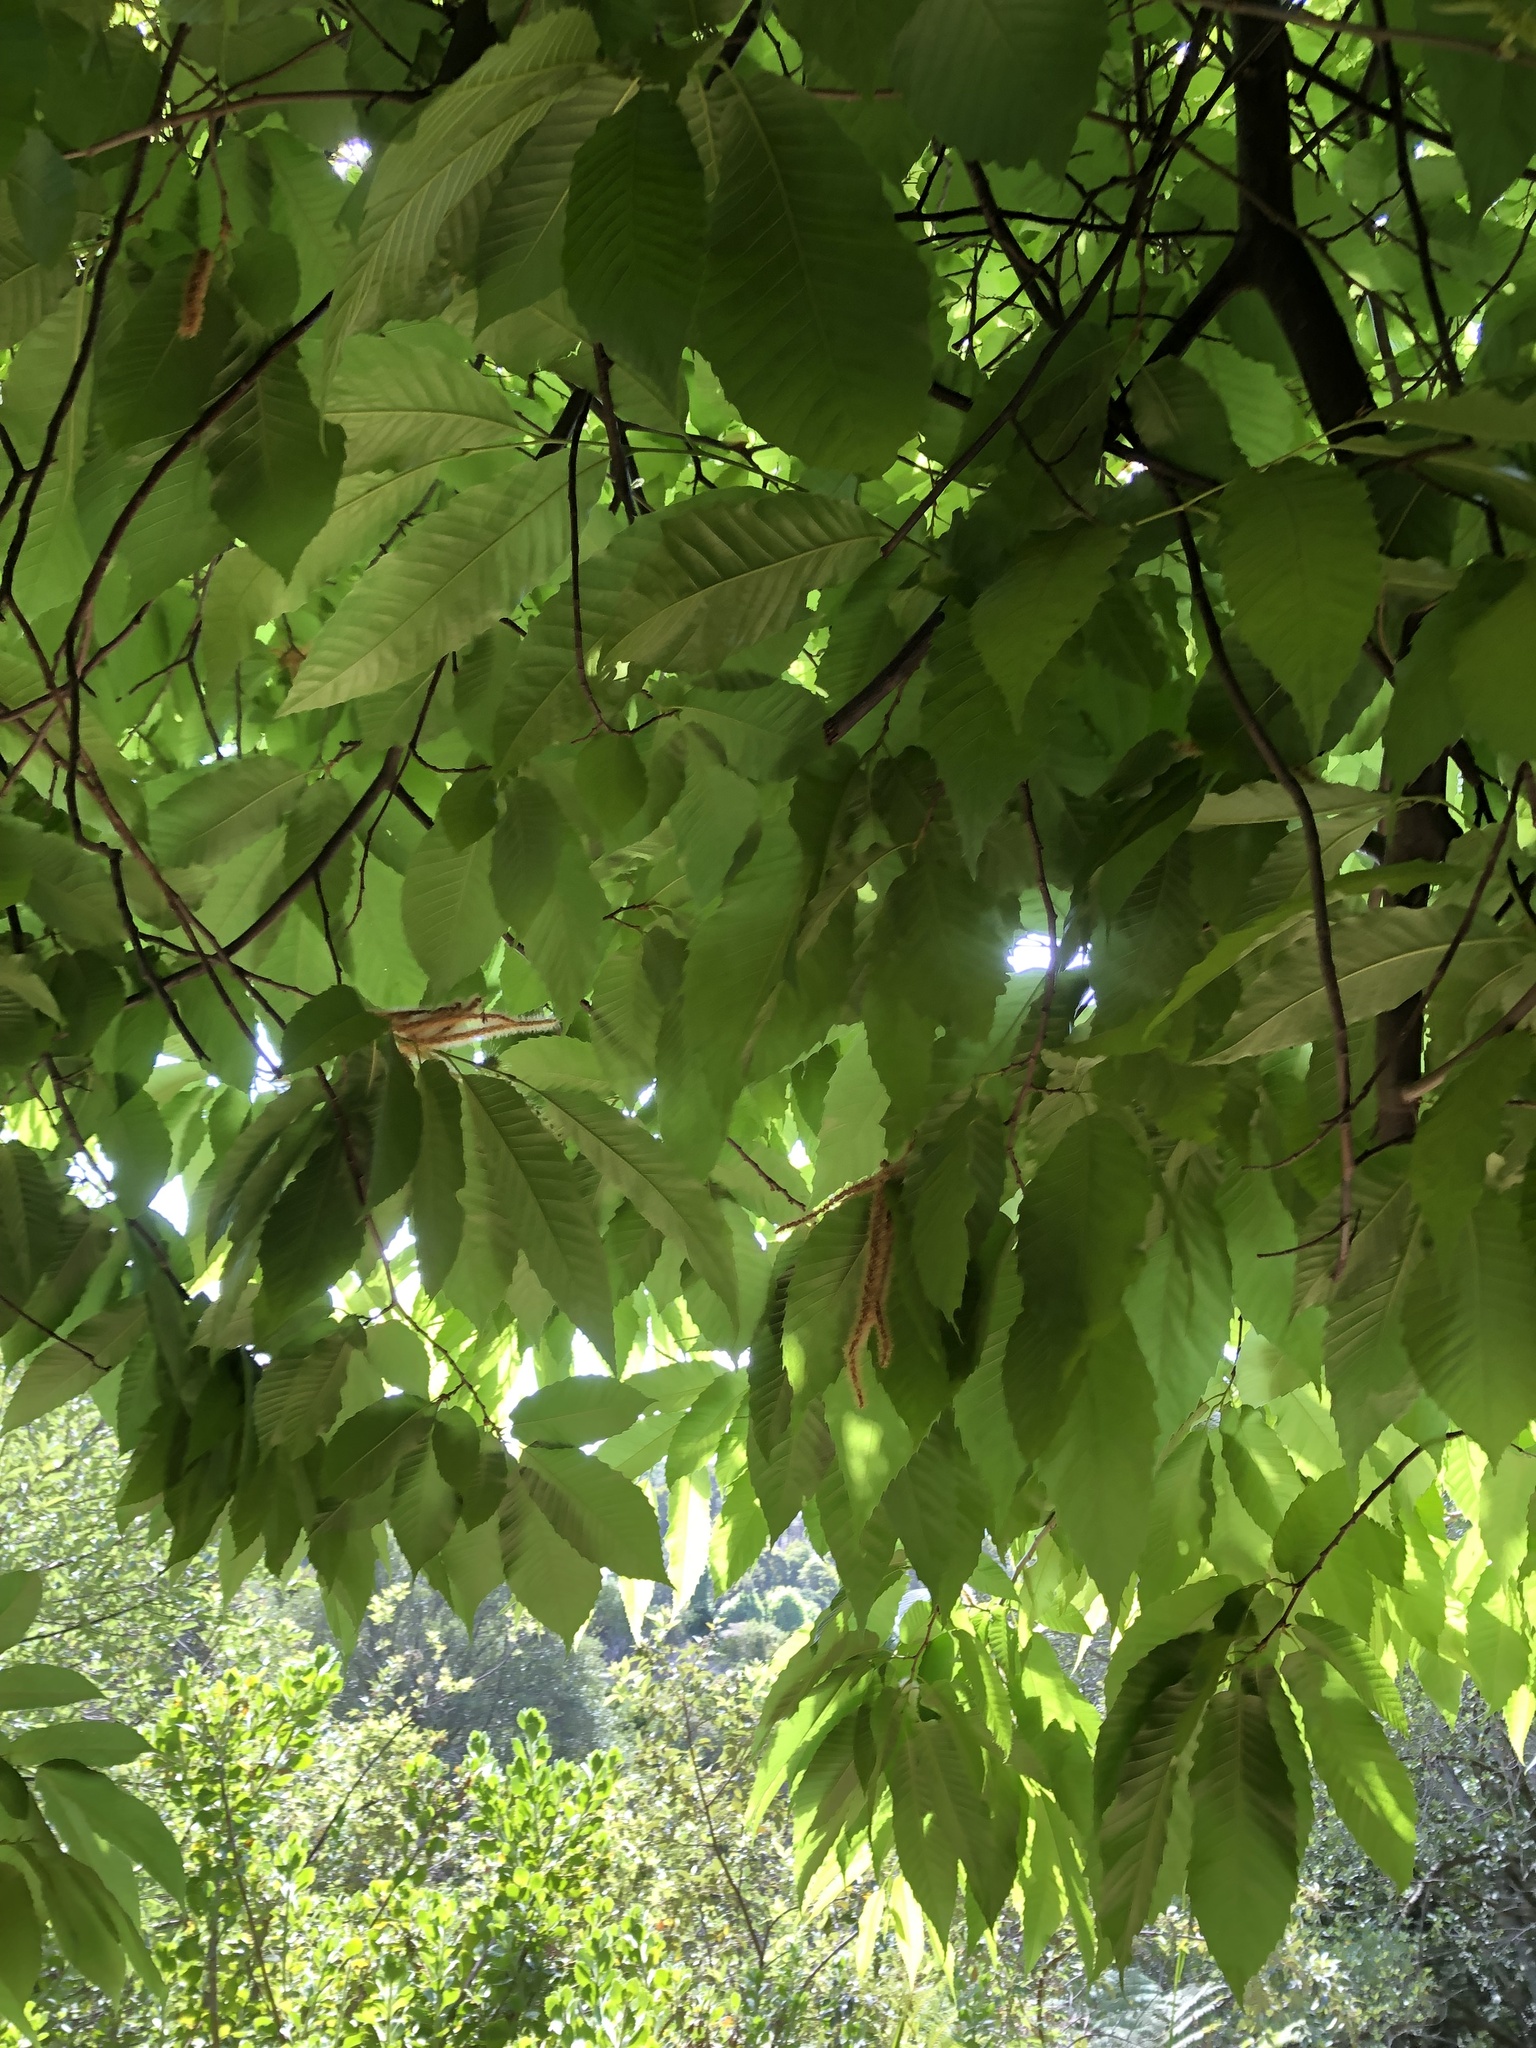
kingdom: Plantae
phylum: Tracheophyta
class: Magnoliopsida
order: Fagales
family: Fagaceae
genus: Castanea
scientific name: Castanea sativa
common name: Sweet chestnut
